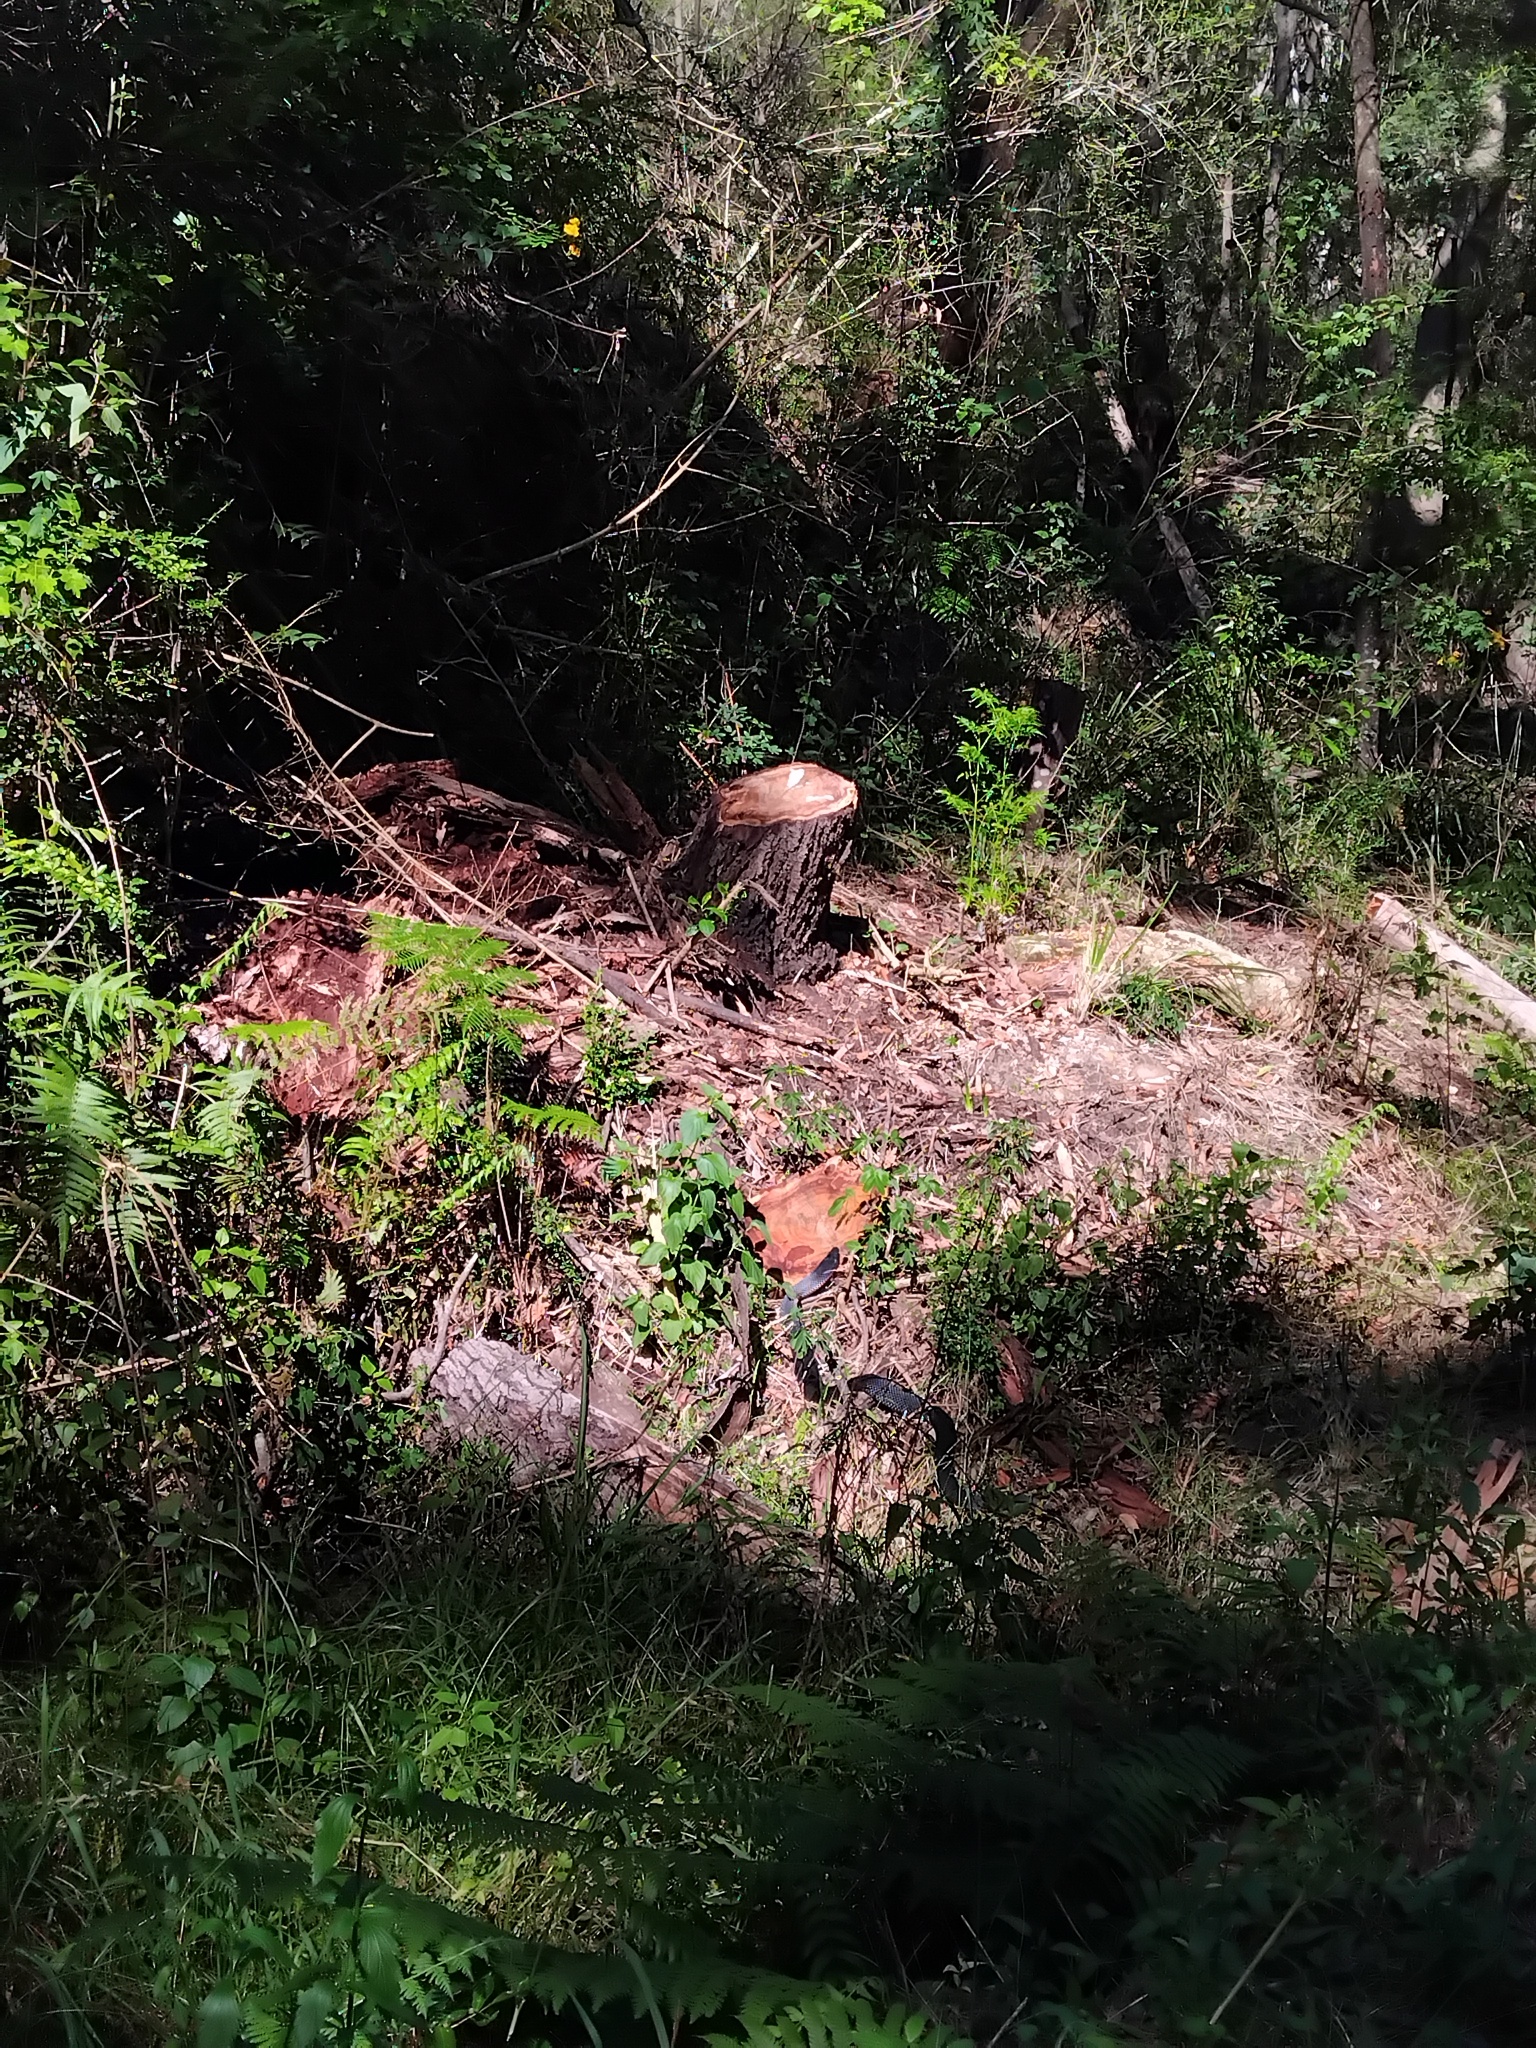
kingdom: Animalia
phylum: Chordata
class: Squamata
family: Elapidae
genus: Pseudechis
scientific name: Pseudechis porphyriacus
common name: Australian black snake
